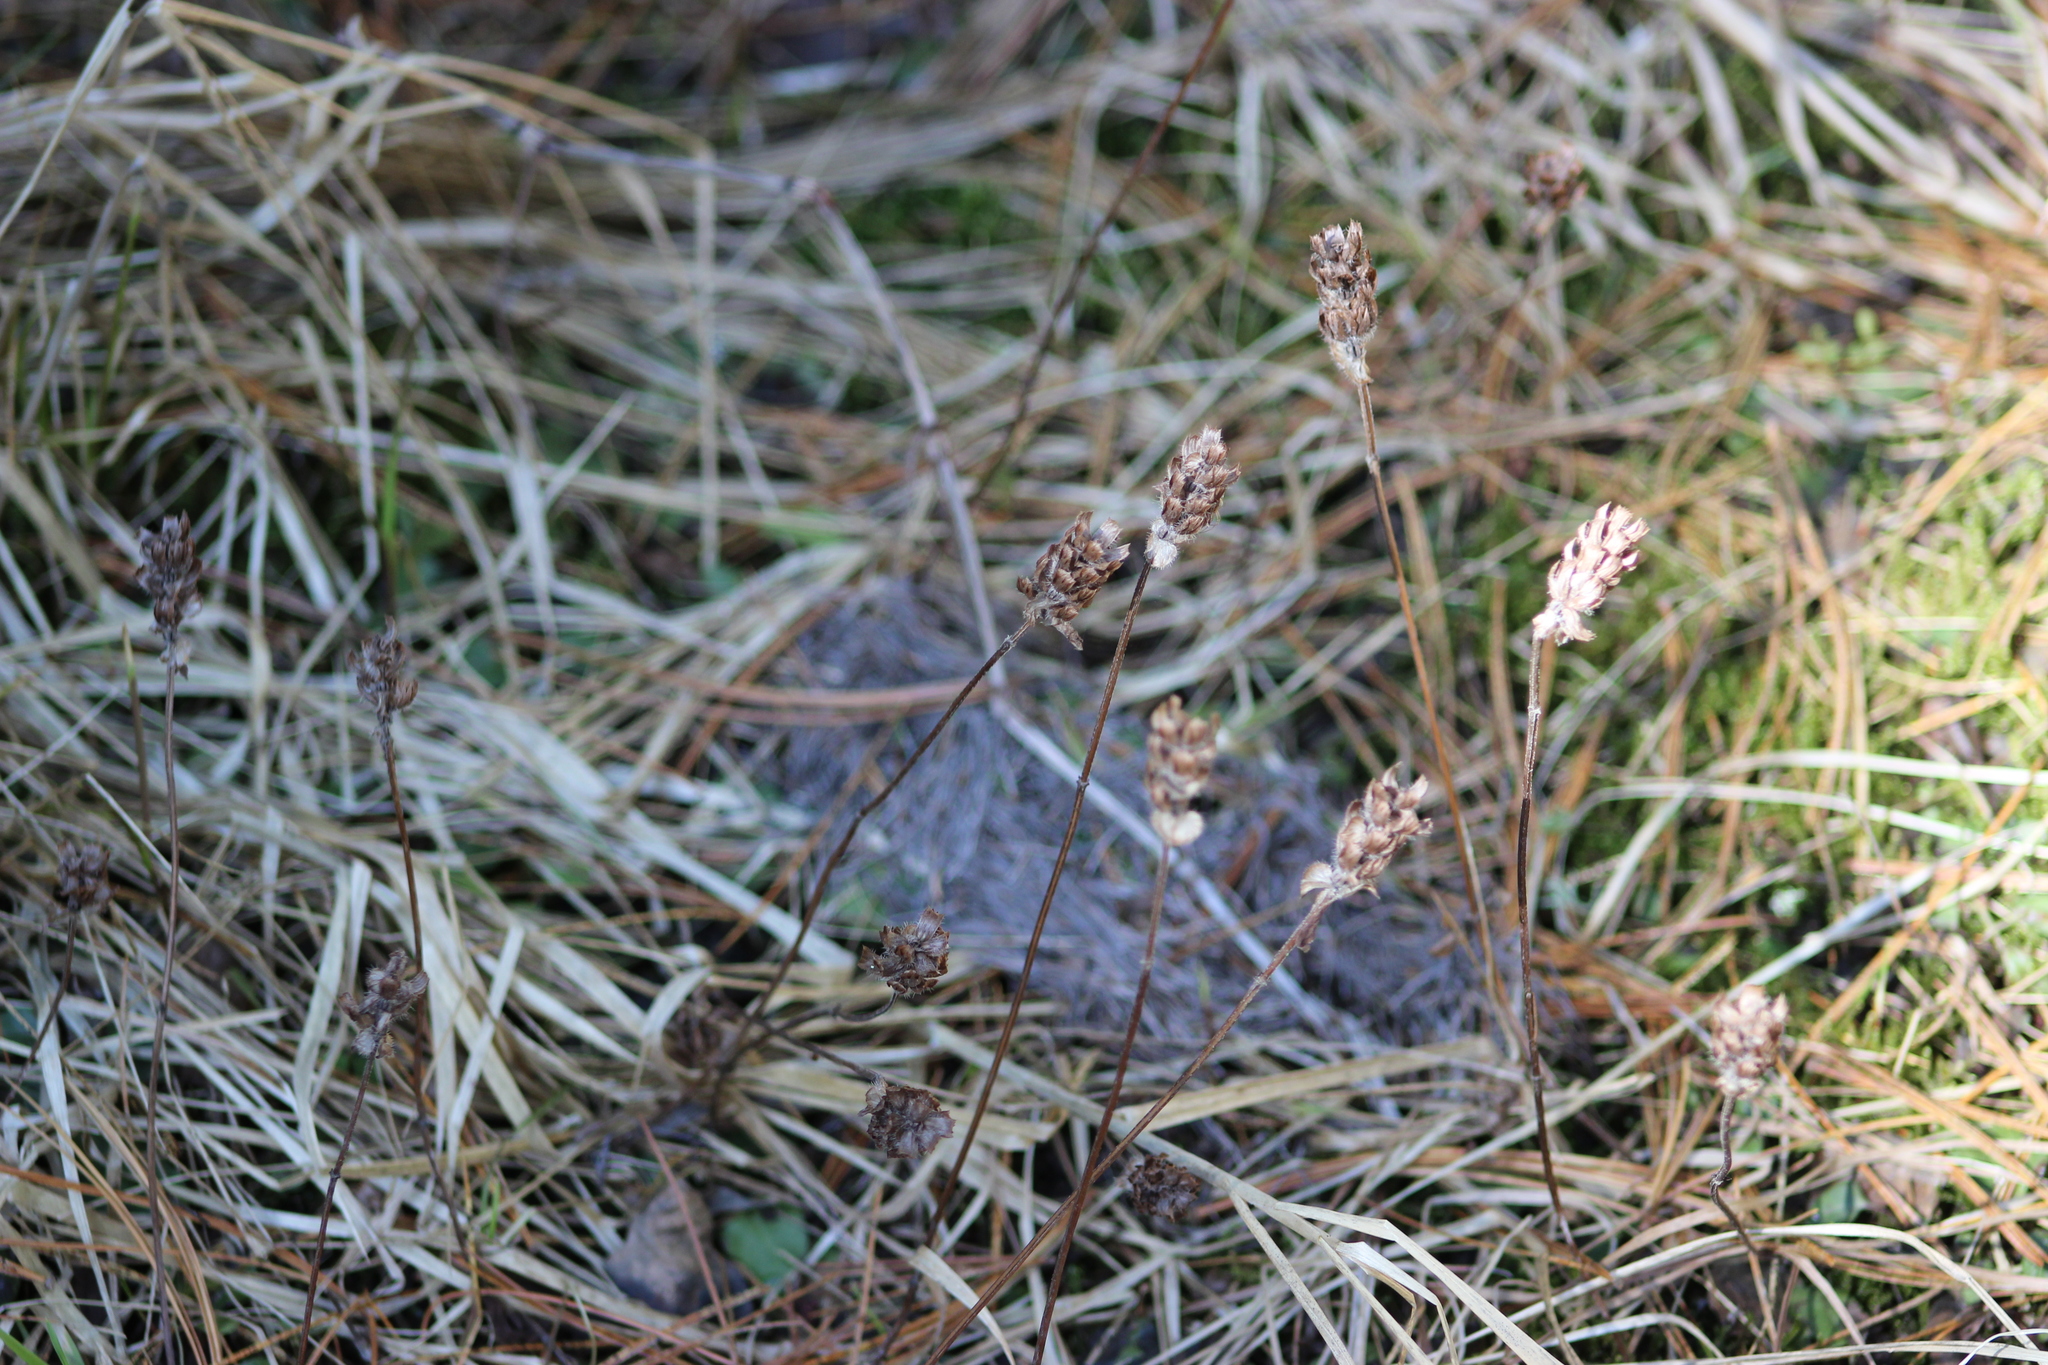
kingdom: Plantae
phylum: Tracheophyta
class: Magnoliopsida
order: Lamiales
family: Lamiaceae
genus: Prunella
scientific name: Prunella vulgaris
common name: Heal-all
